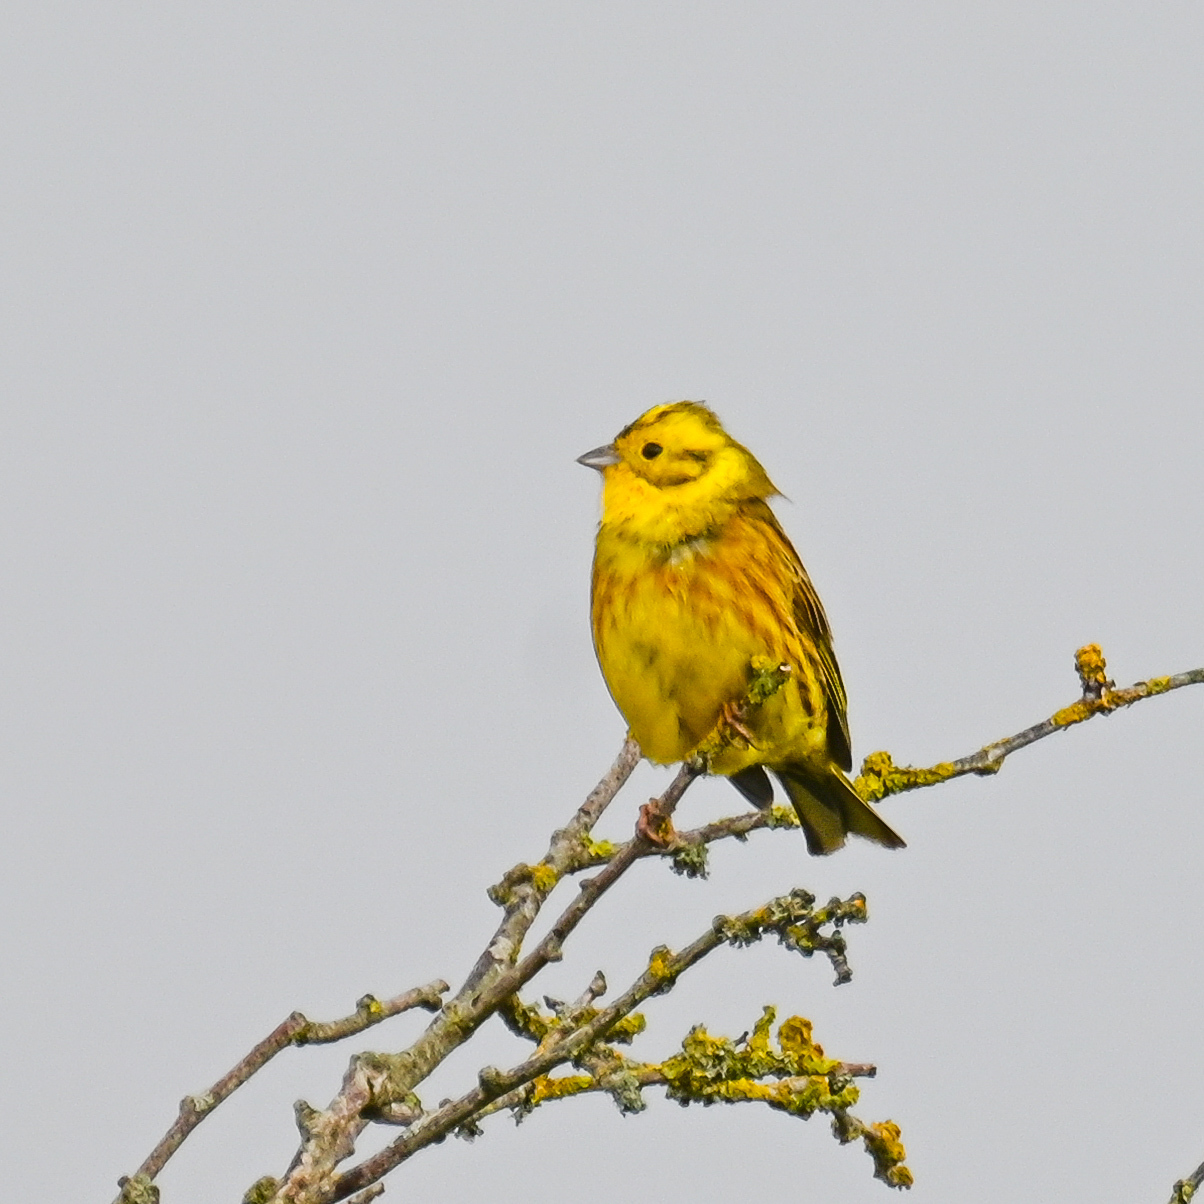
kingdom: Animalia
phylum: Chordata
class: Aves
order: Passeriformes
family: Emberizidae
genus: Emberiza
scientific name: Emberiza citrinella
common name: Yellowhammer
